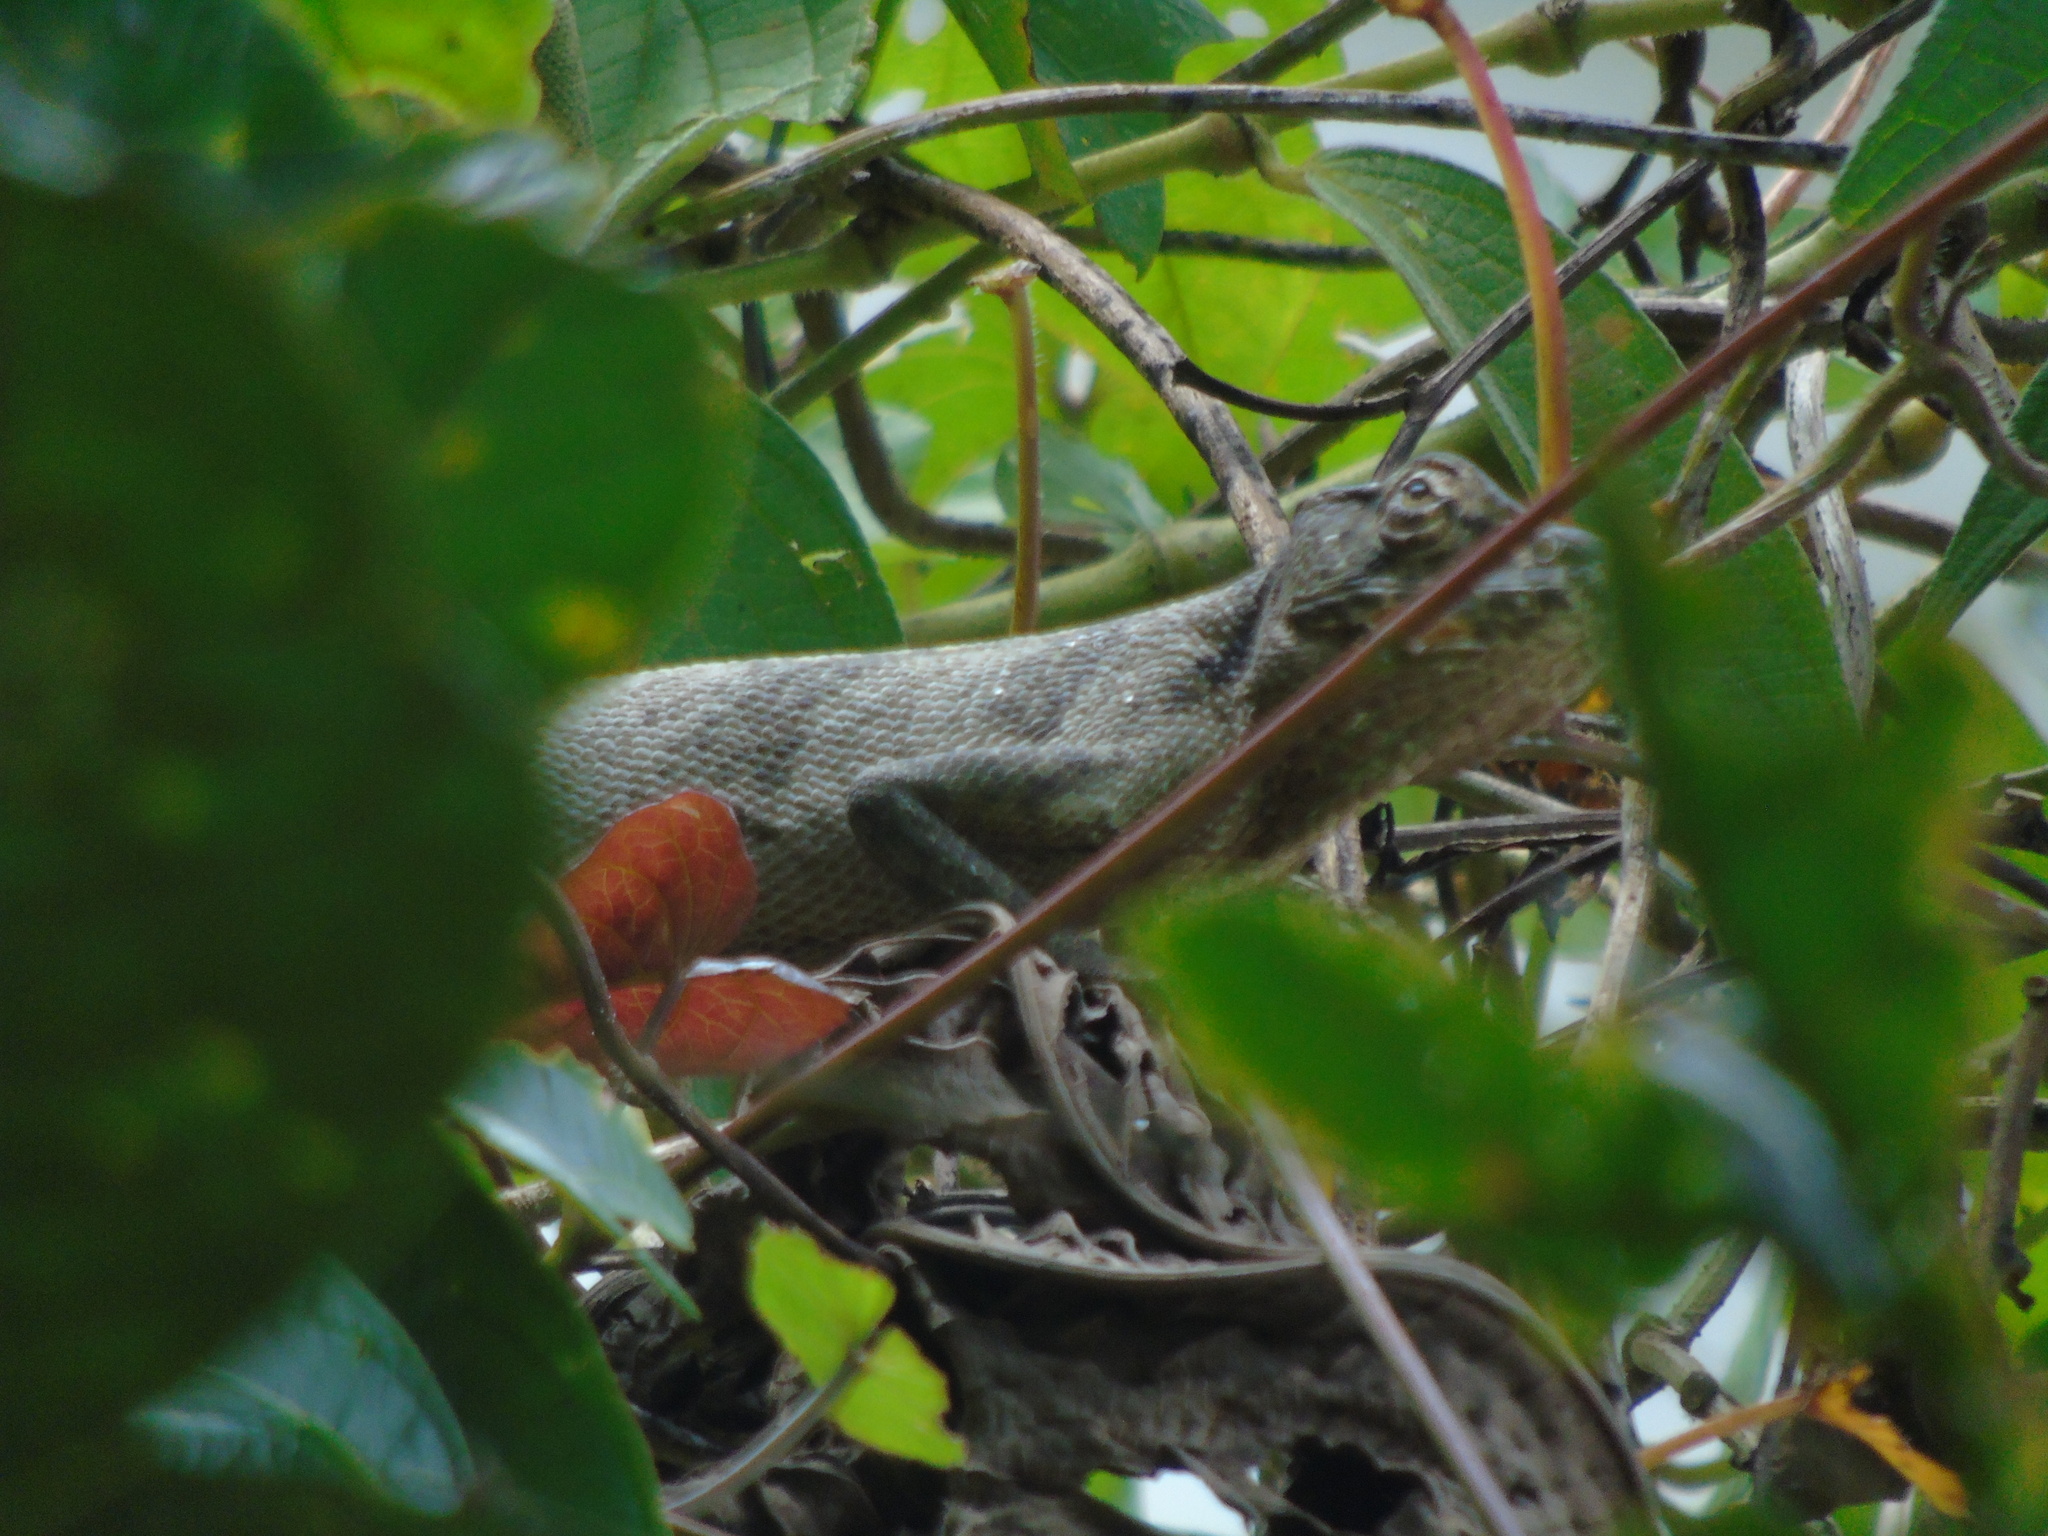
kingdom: Animalia
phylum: Chordata
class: Squamata
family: Polychrotidae
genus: Polychrus
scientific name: Polychrus gutturosus
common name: Berthold's bush anole
